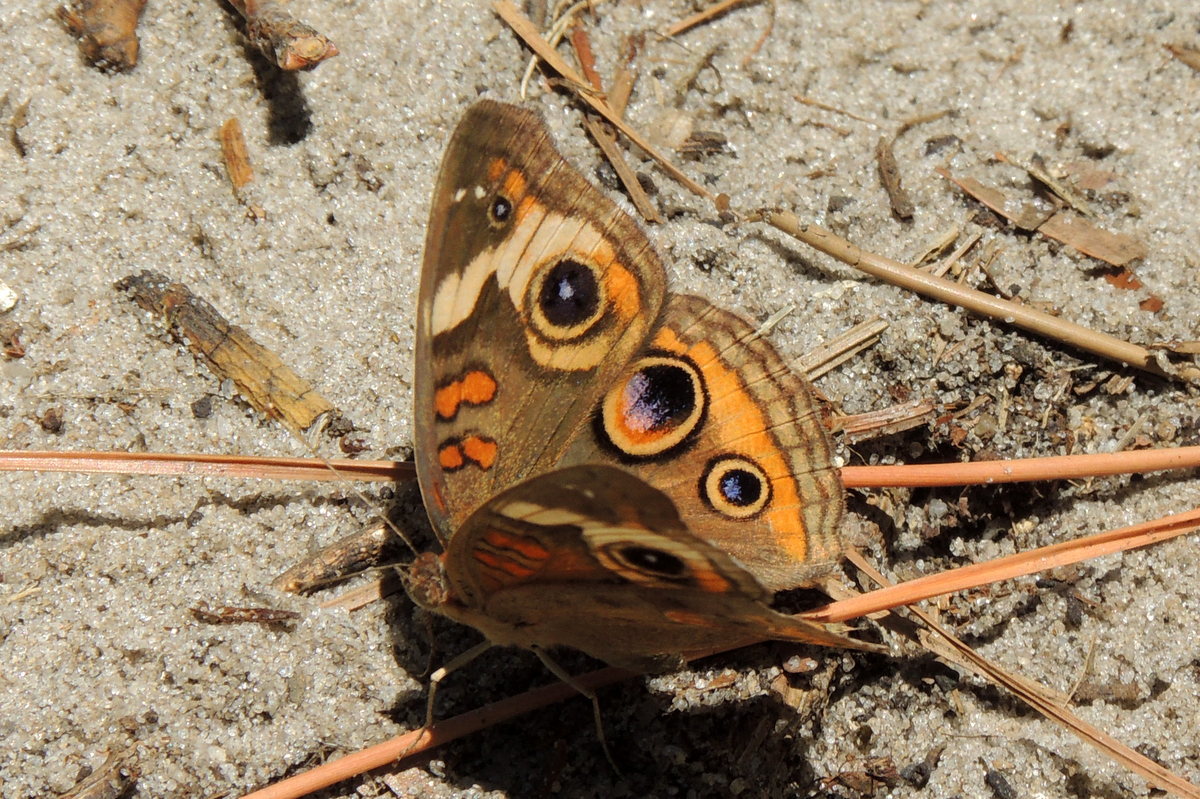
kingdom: Animalia
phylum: Arthropoda
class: Insecta
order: Lepidoptera
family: Nymphalidae
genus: Junonia
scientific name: Junonia coenia
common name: Common buckeye
